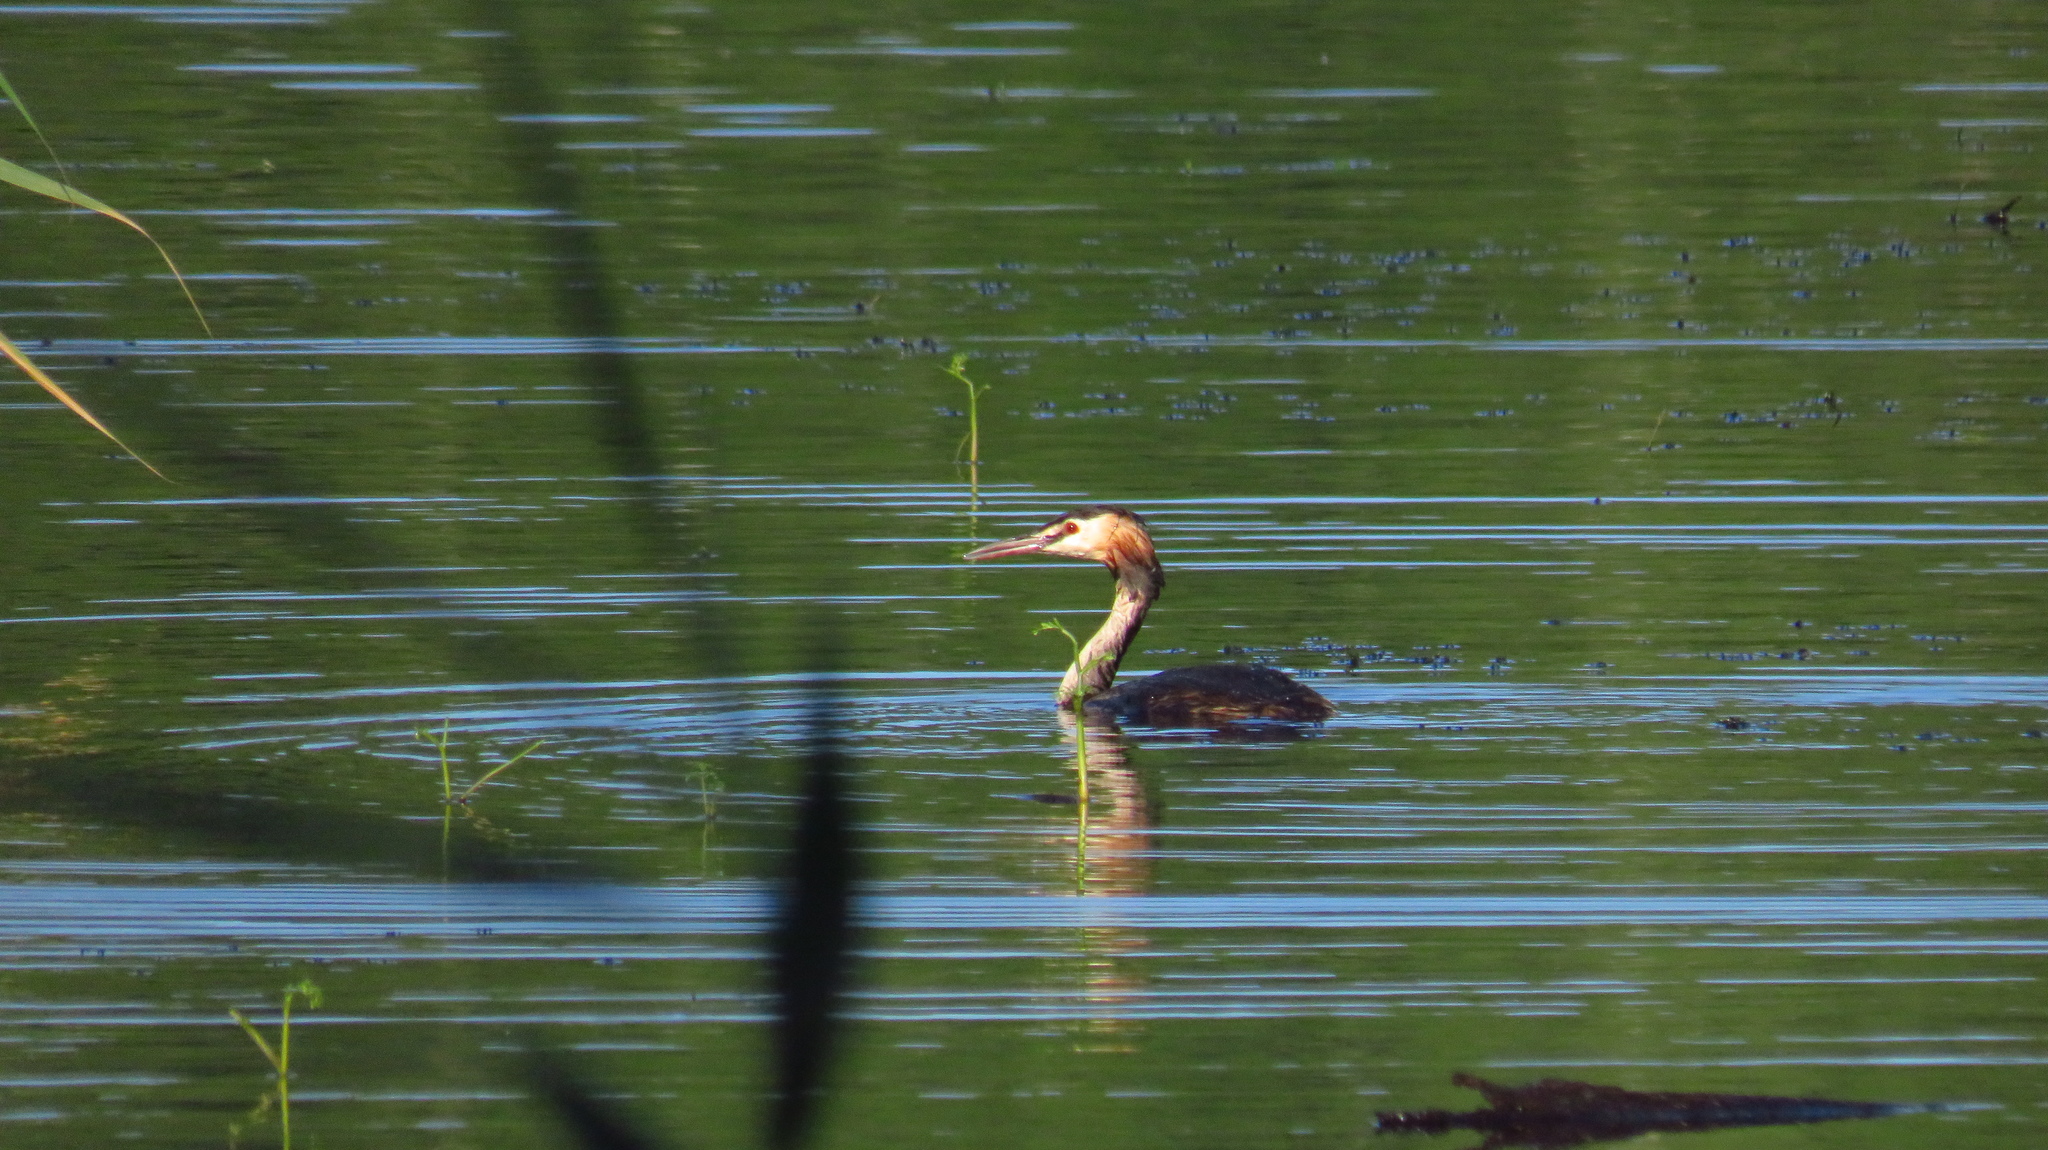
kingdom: Animalia
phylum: Chordata
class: Aves
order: Podicipediformes
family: Podicipedidae
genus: Podiceps
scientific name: Podiceps cristatus
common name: Great crested grebe
